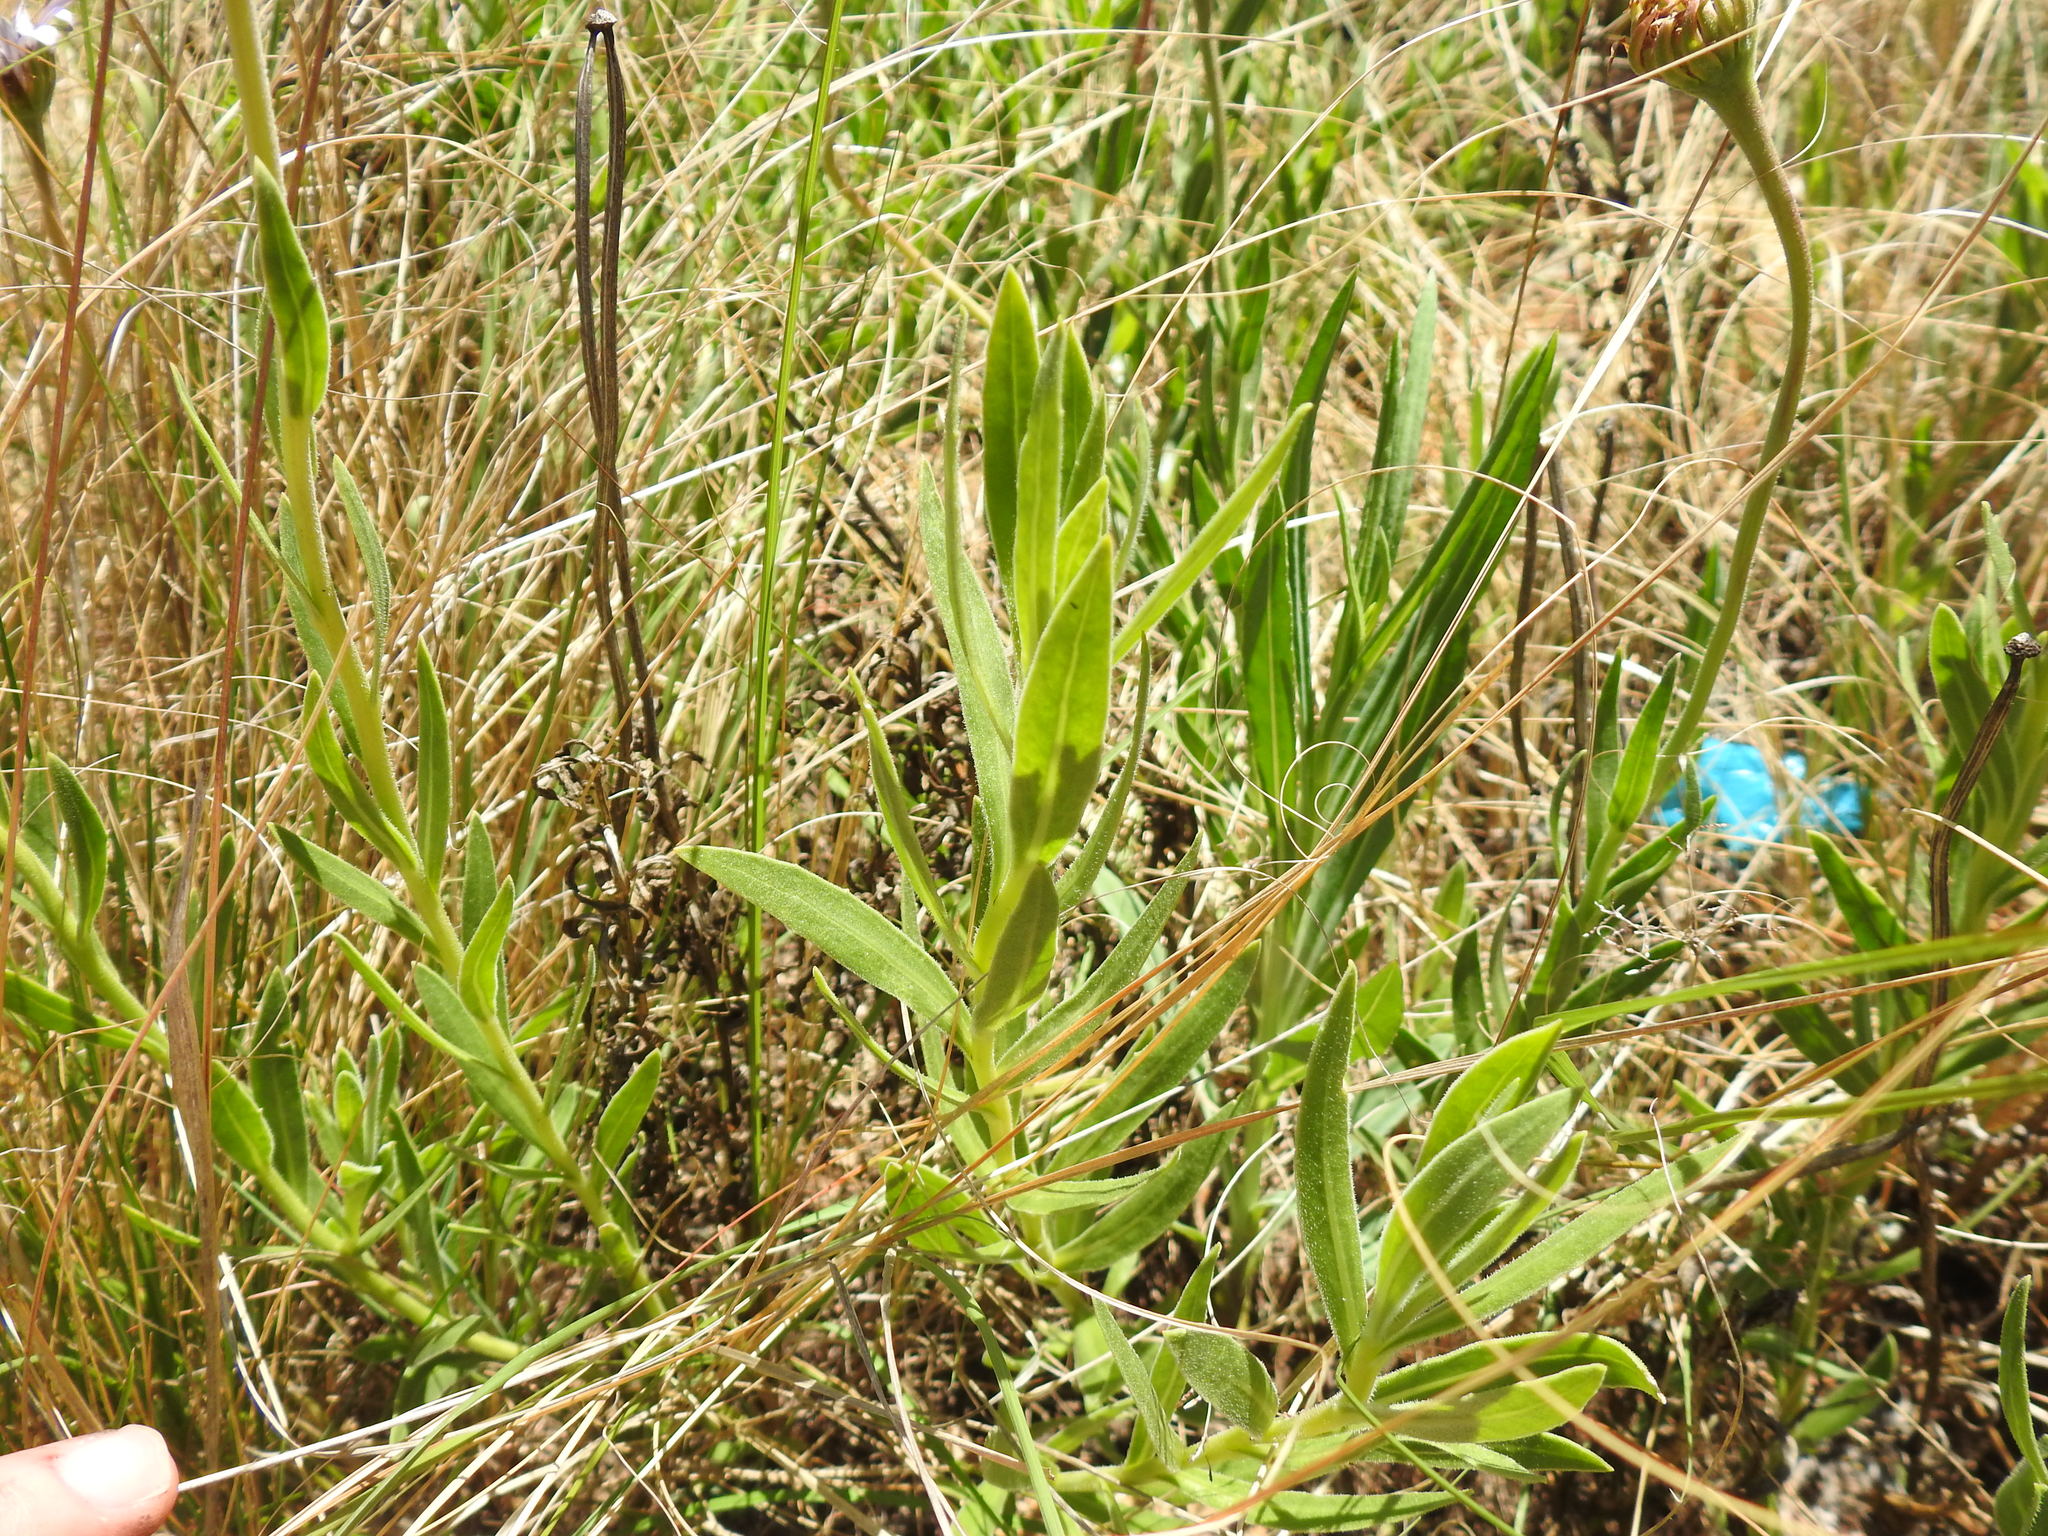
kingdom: Plantae
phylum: Tracheophyta
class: Magnoliopsida
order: Asterales
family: Asteraceae
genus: Dimorphotheca
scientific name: Dimorphotheca spectabilis
